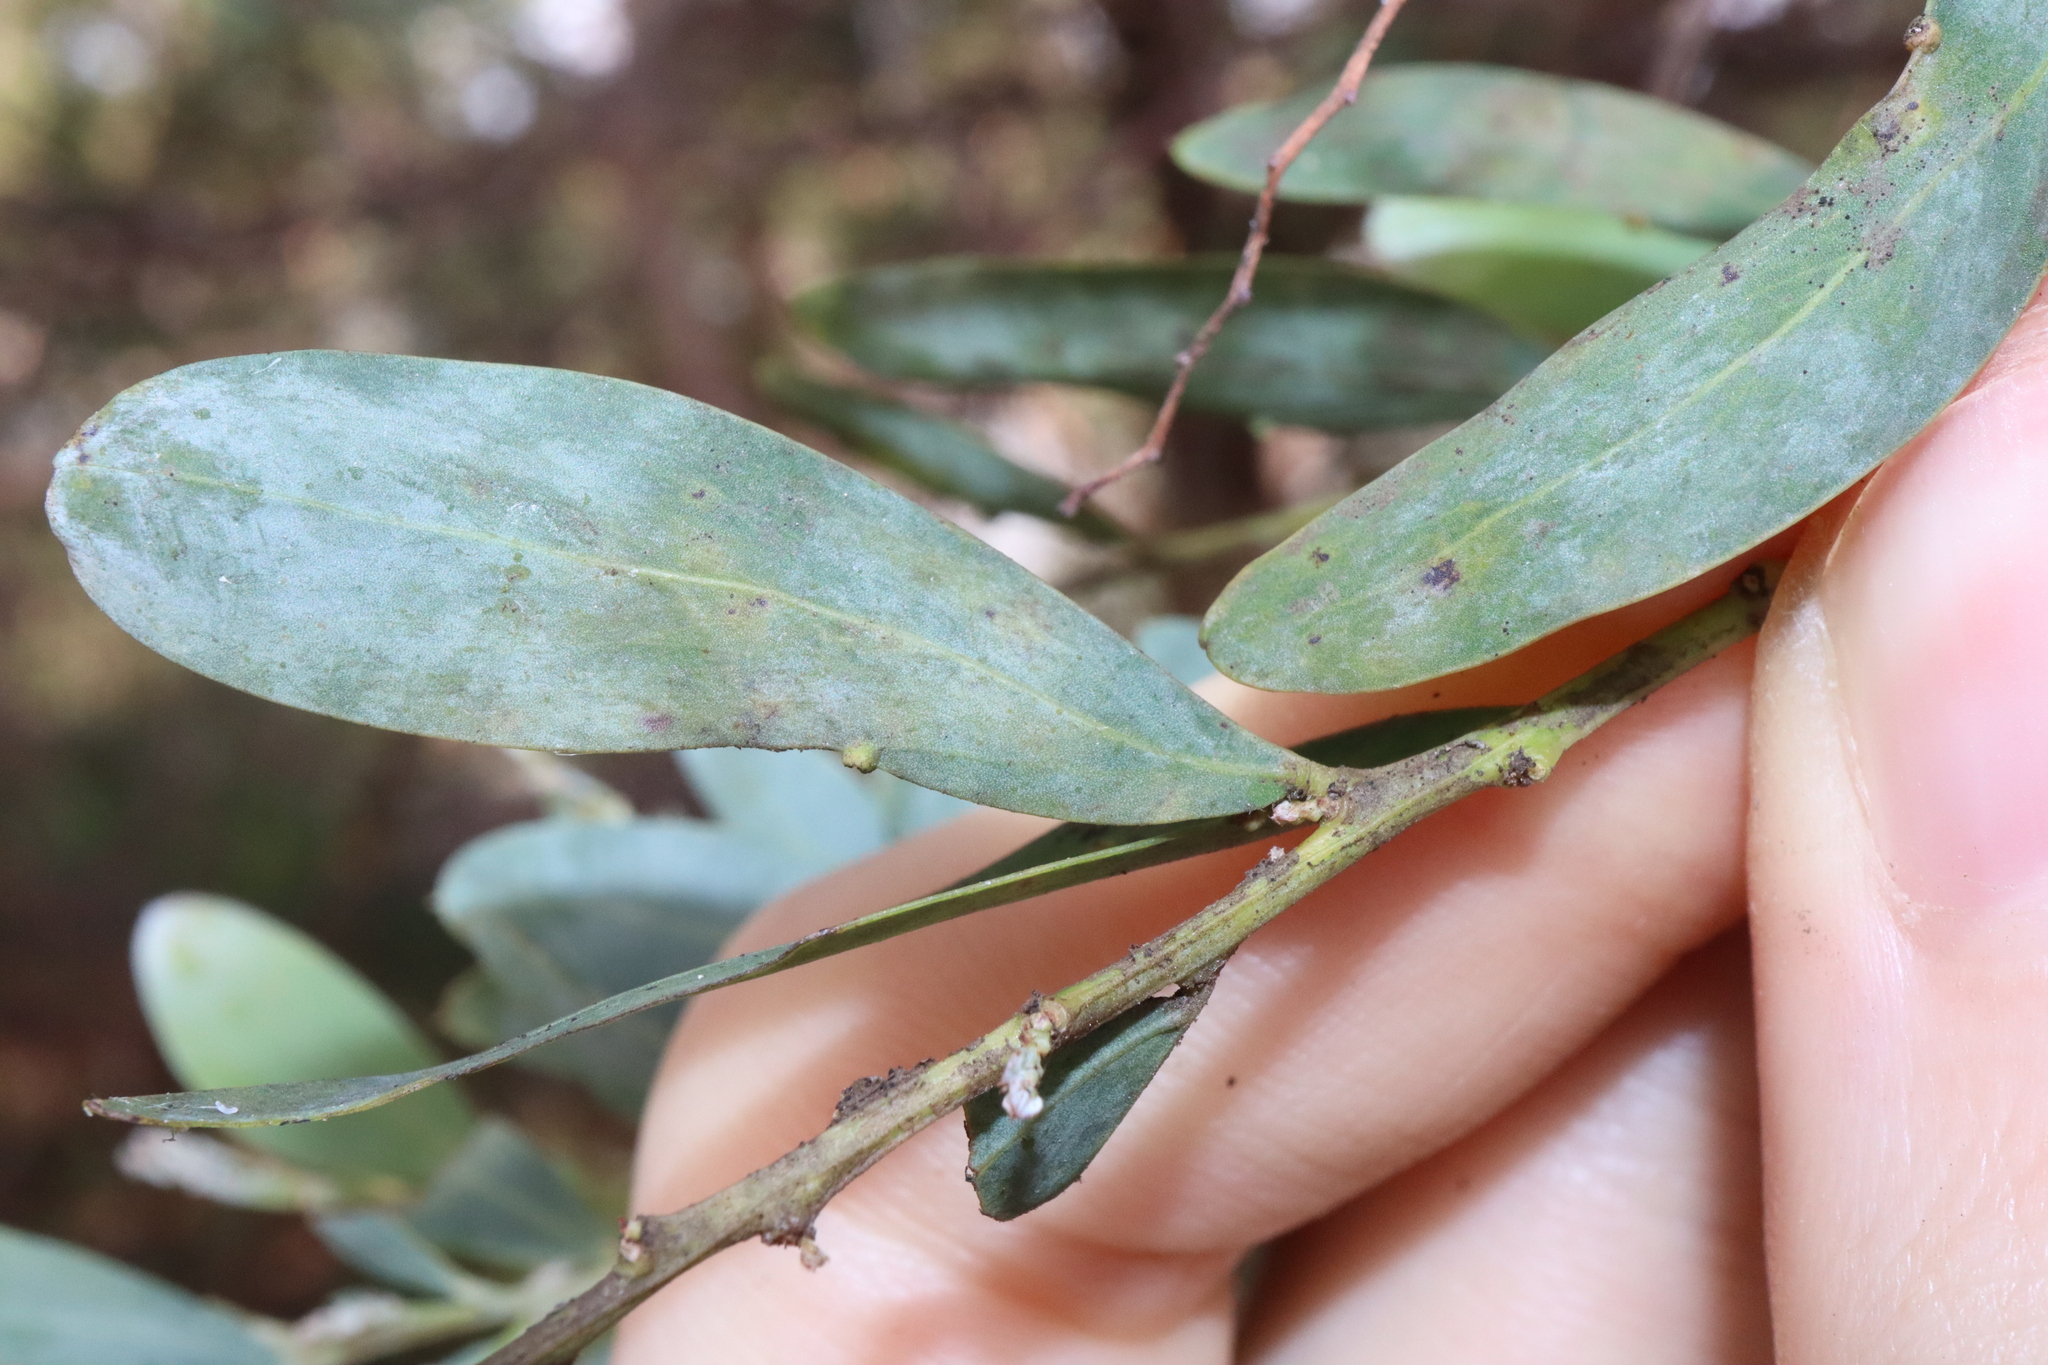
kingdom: Plantae
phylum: Tracheophyta
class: Magnoliopsida
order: Fabales
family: Fabaceae
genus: Acacia
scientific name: Acacia prominens
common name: Gosford wattle
